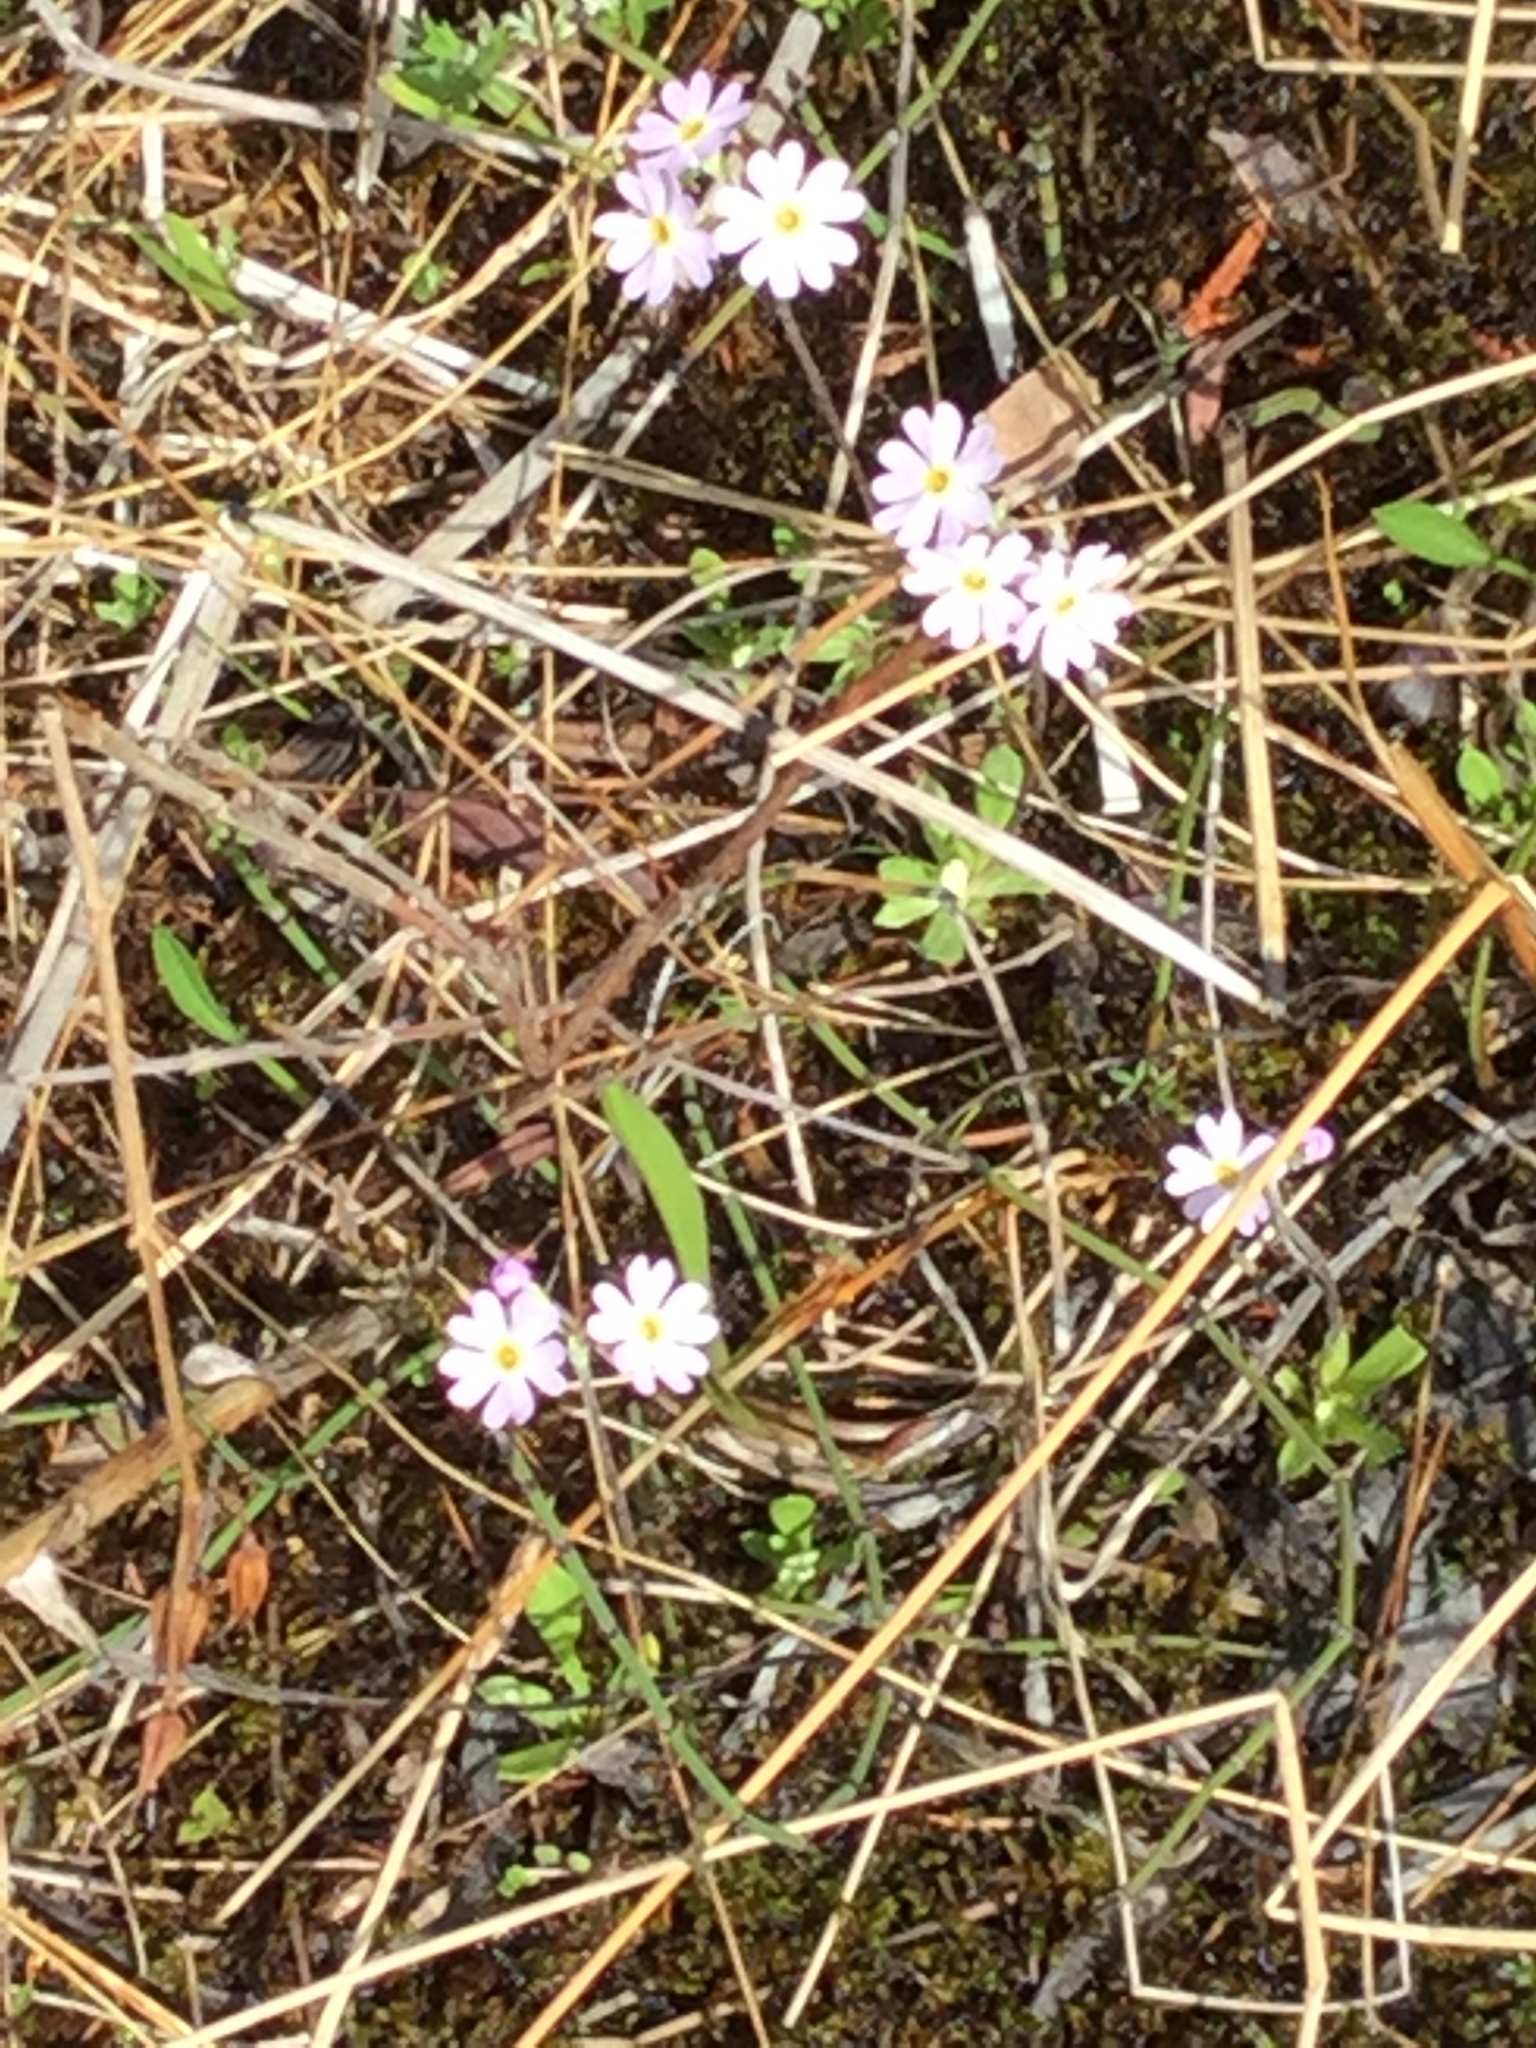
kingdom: Plantae
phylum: Tracheophyta
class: Magnoliopsida
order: Ericales
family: Primulaceae
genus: Primula
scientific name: Primula mistassinica
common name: Bird's-eye primrose
